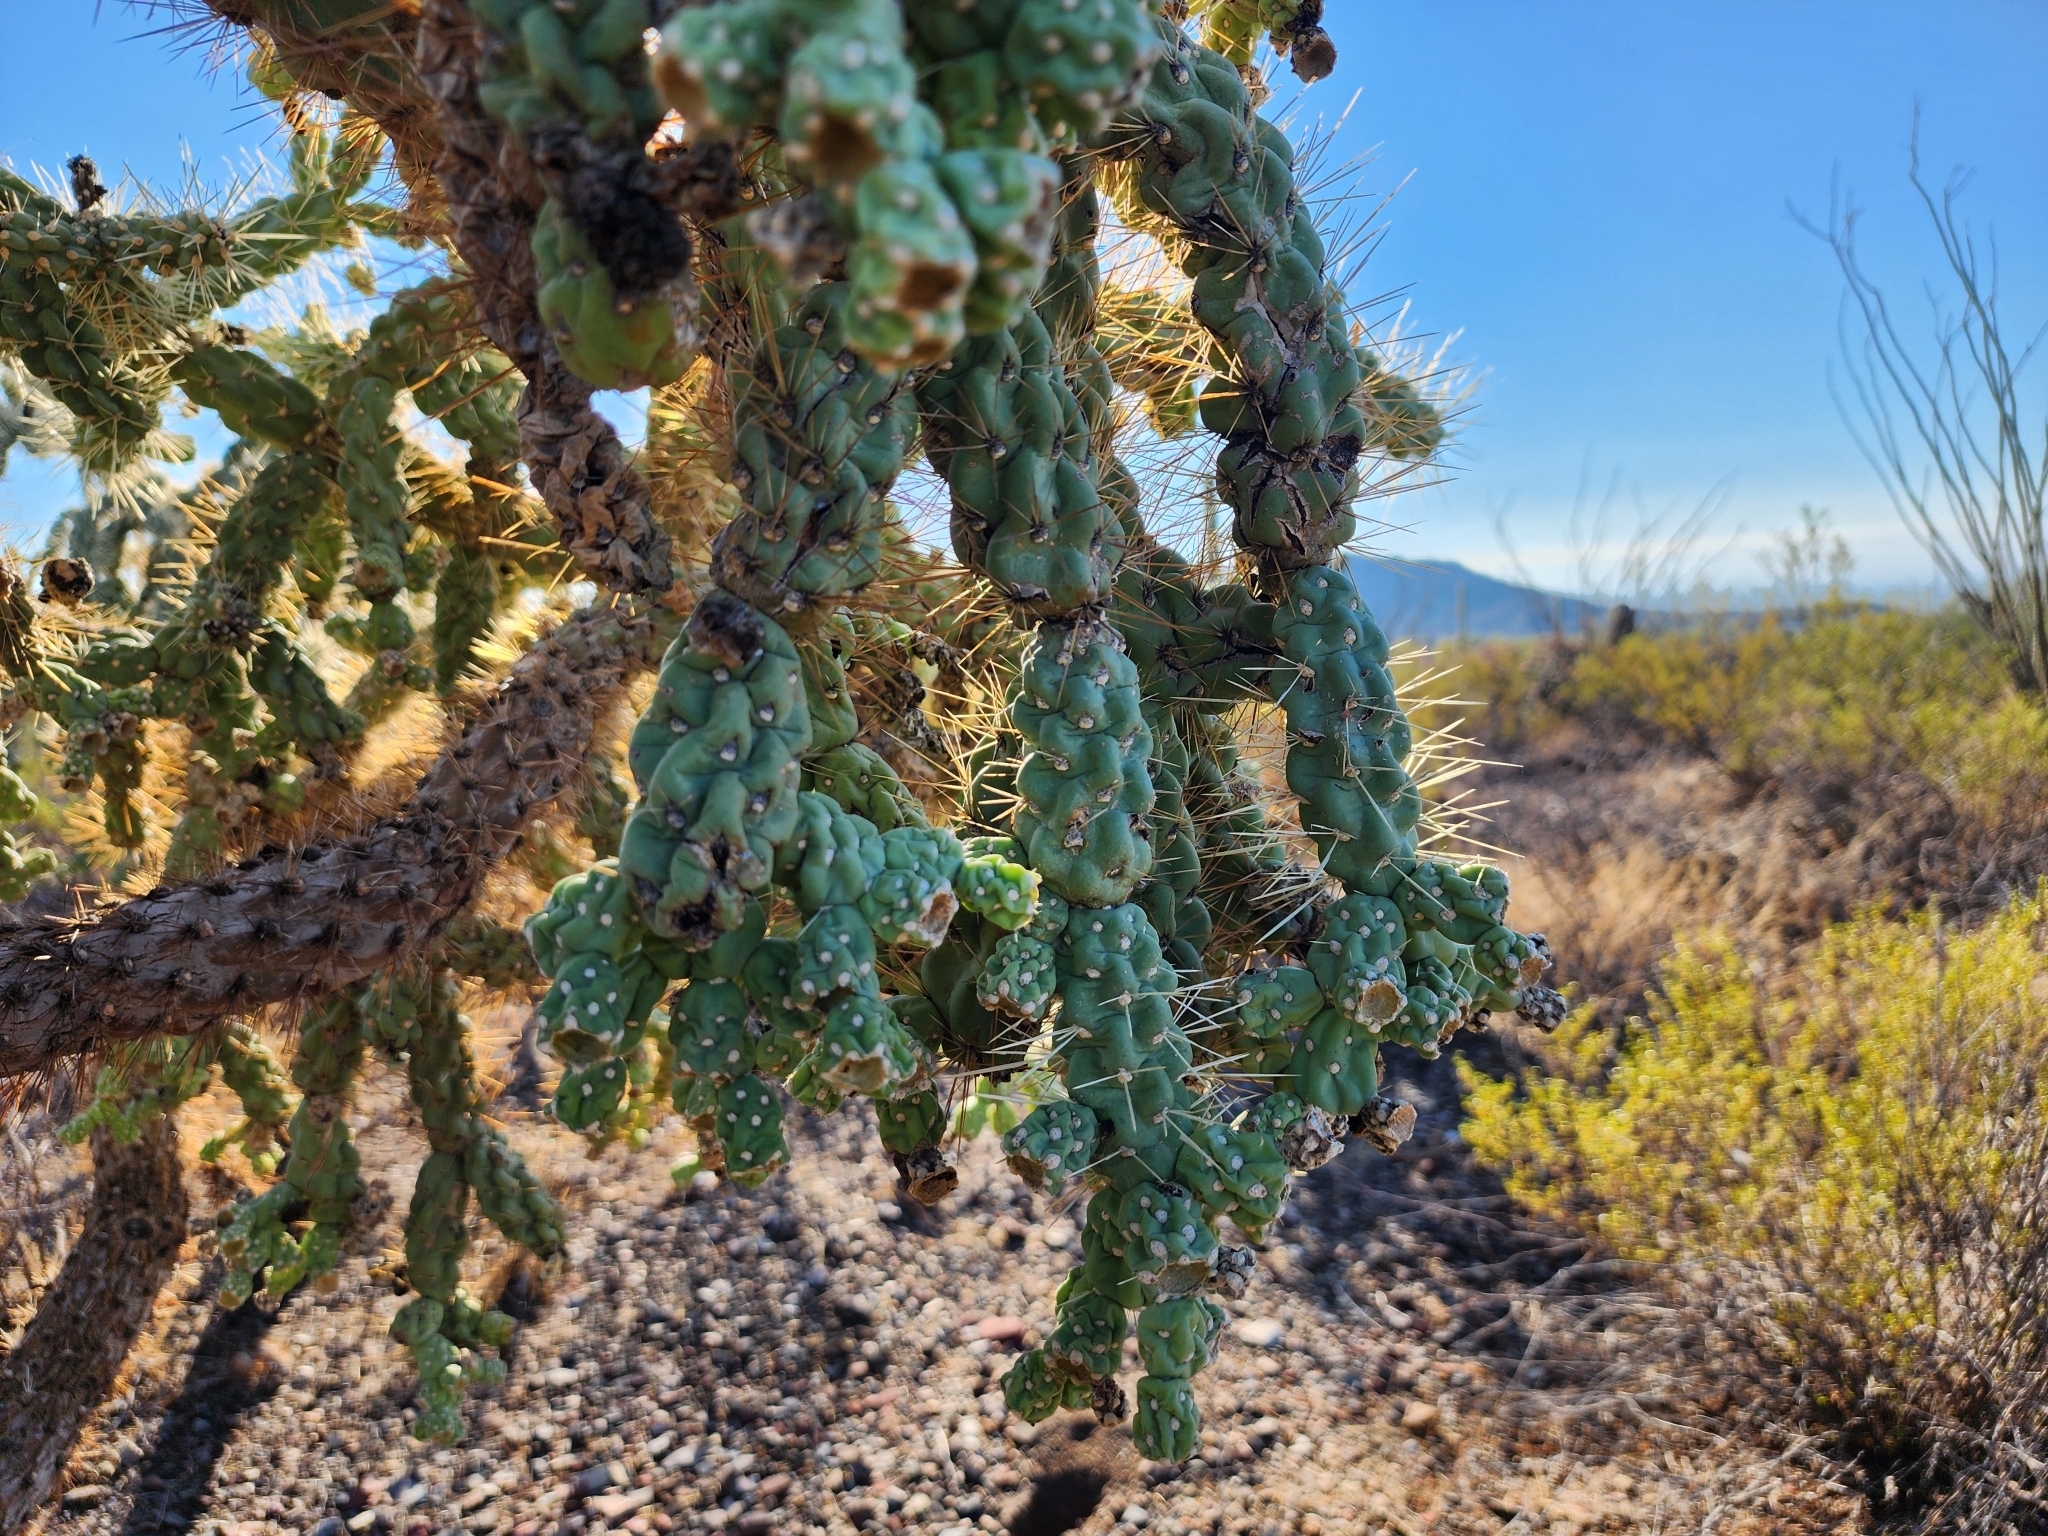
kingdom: Plantae
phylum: Tracheophyta
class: Magnoliopsida
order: Caryophyllales
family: Cactaceae
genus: Cylindropuntia
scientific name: Cylindropuntia fulgida
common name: Jumping cholla
